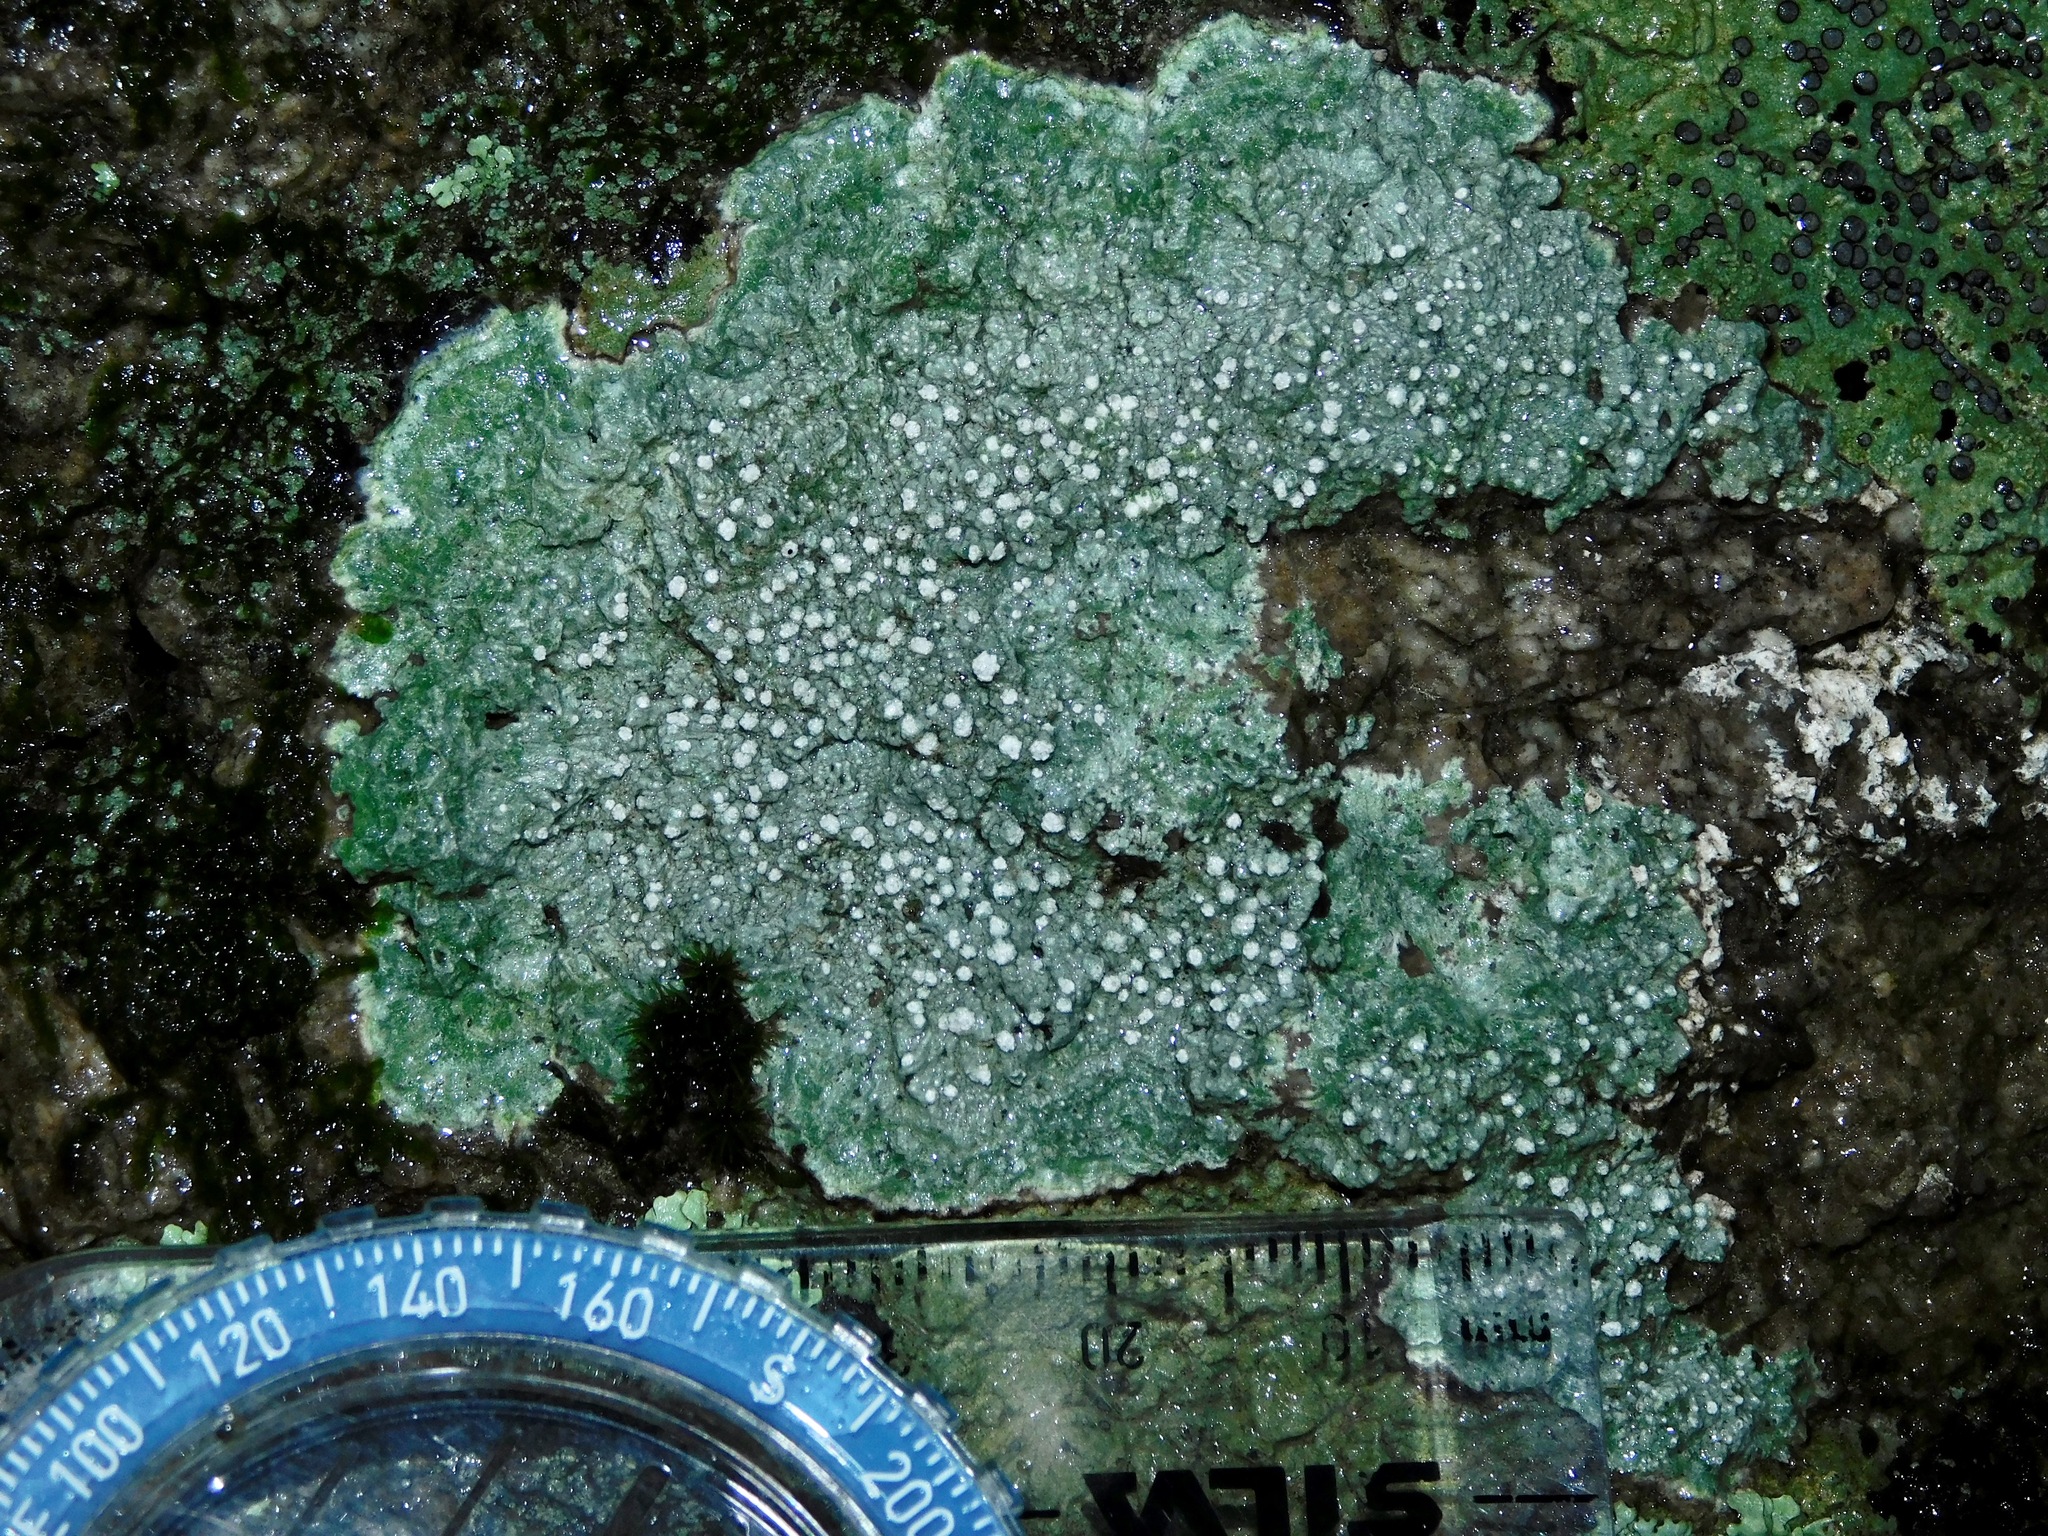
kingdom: Fungi
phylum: Ascomycota
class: Lecanoromycetes
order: Pertusariales
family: Pertusariaceae
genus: Lepra
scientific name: Lepra excludens
